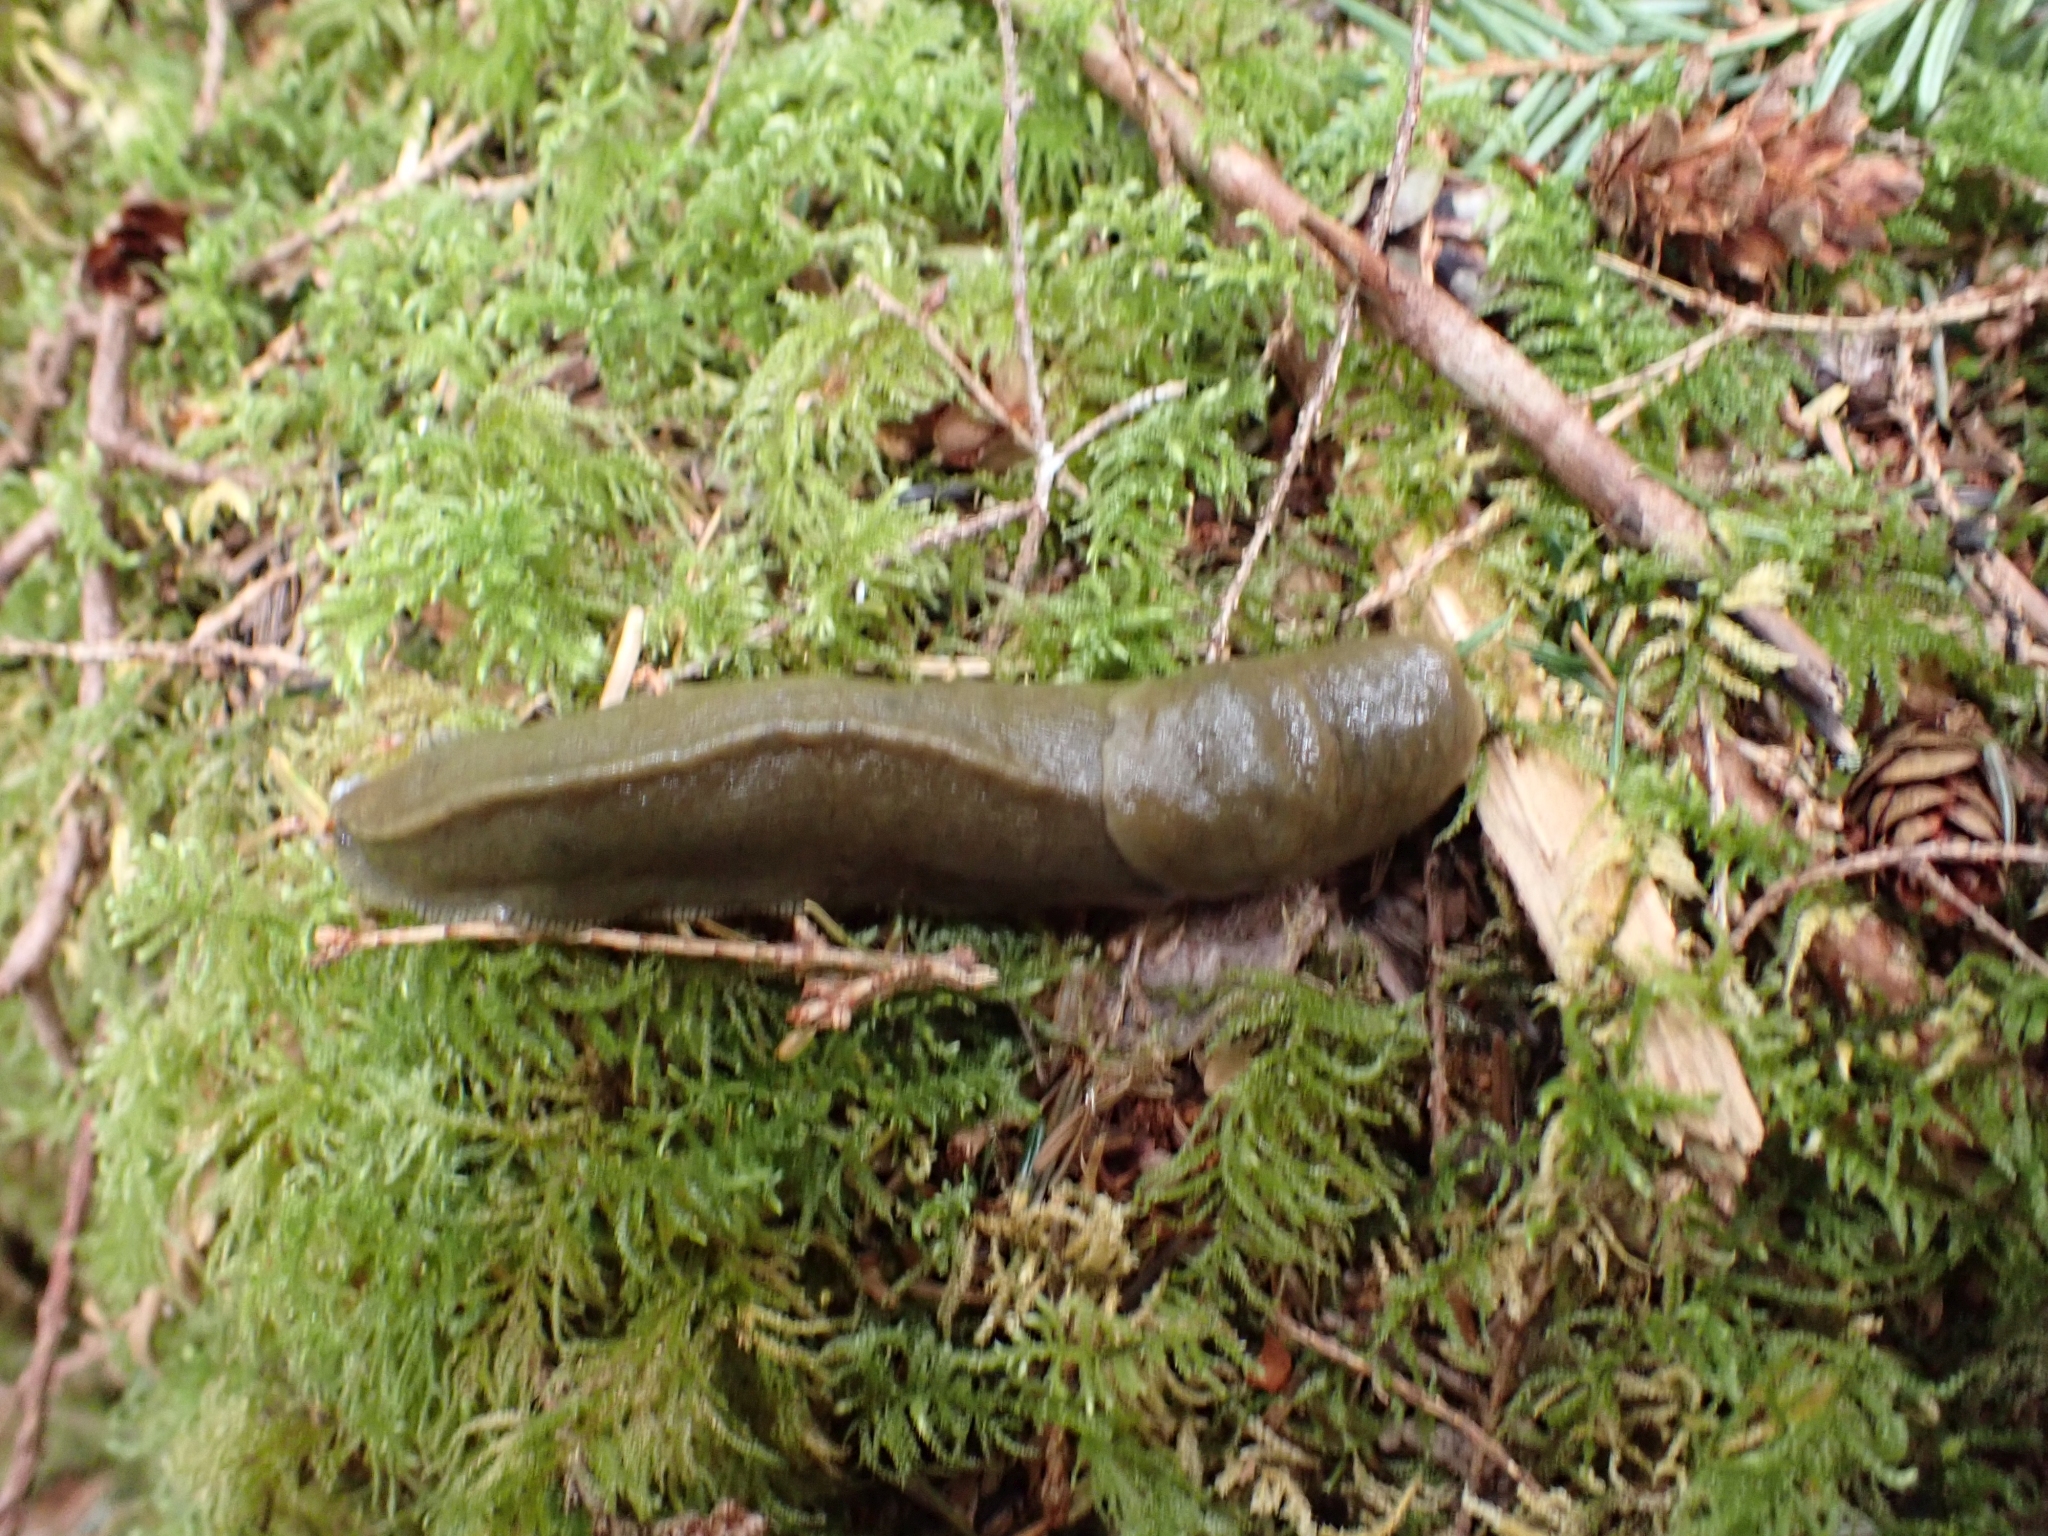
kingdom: Animalia
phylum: Mollusca
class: Gastropoda
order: Stylommatophora
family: Ariolimacidae
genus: Ariolimax
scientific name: Ariolimax columbianus
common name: Pacific banana slug
